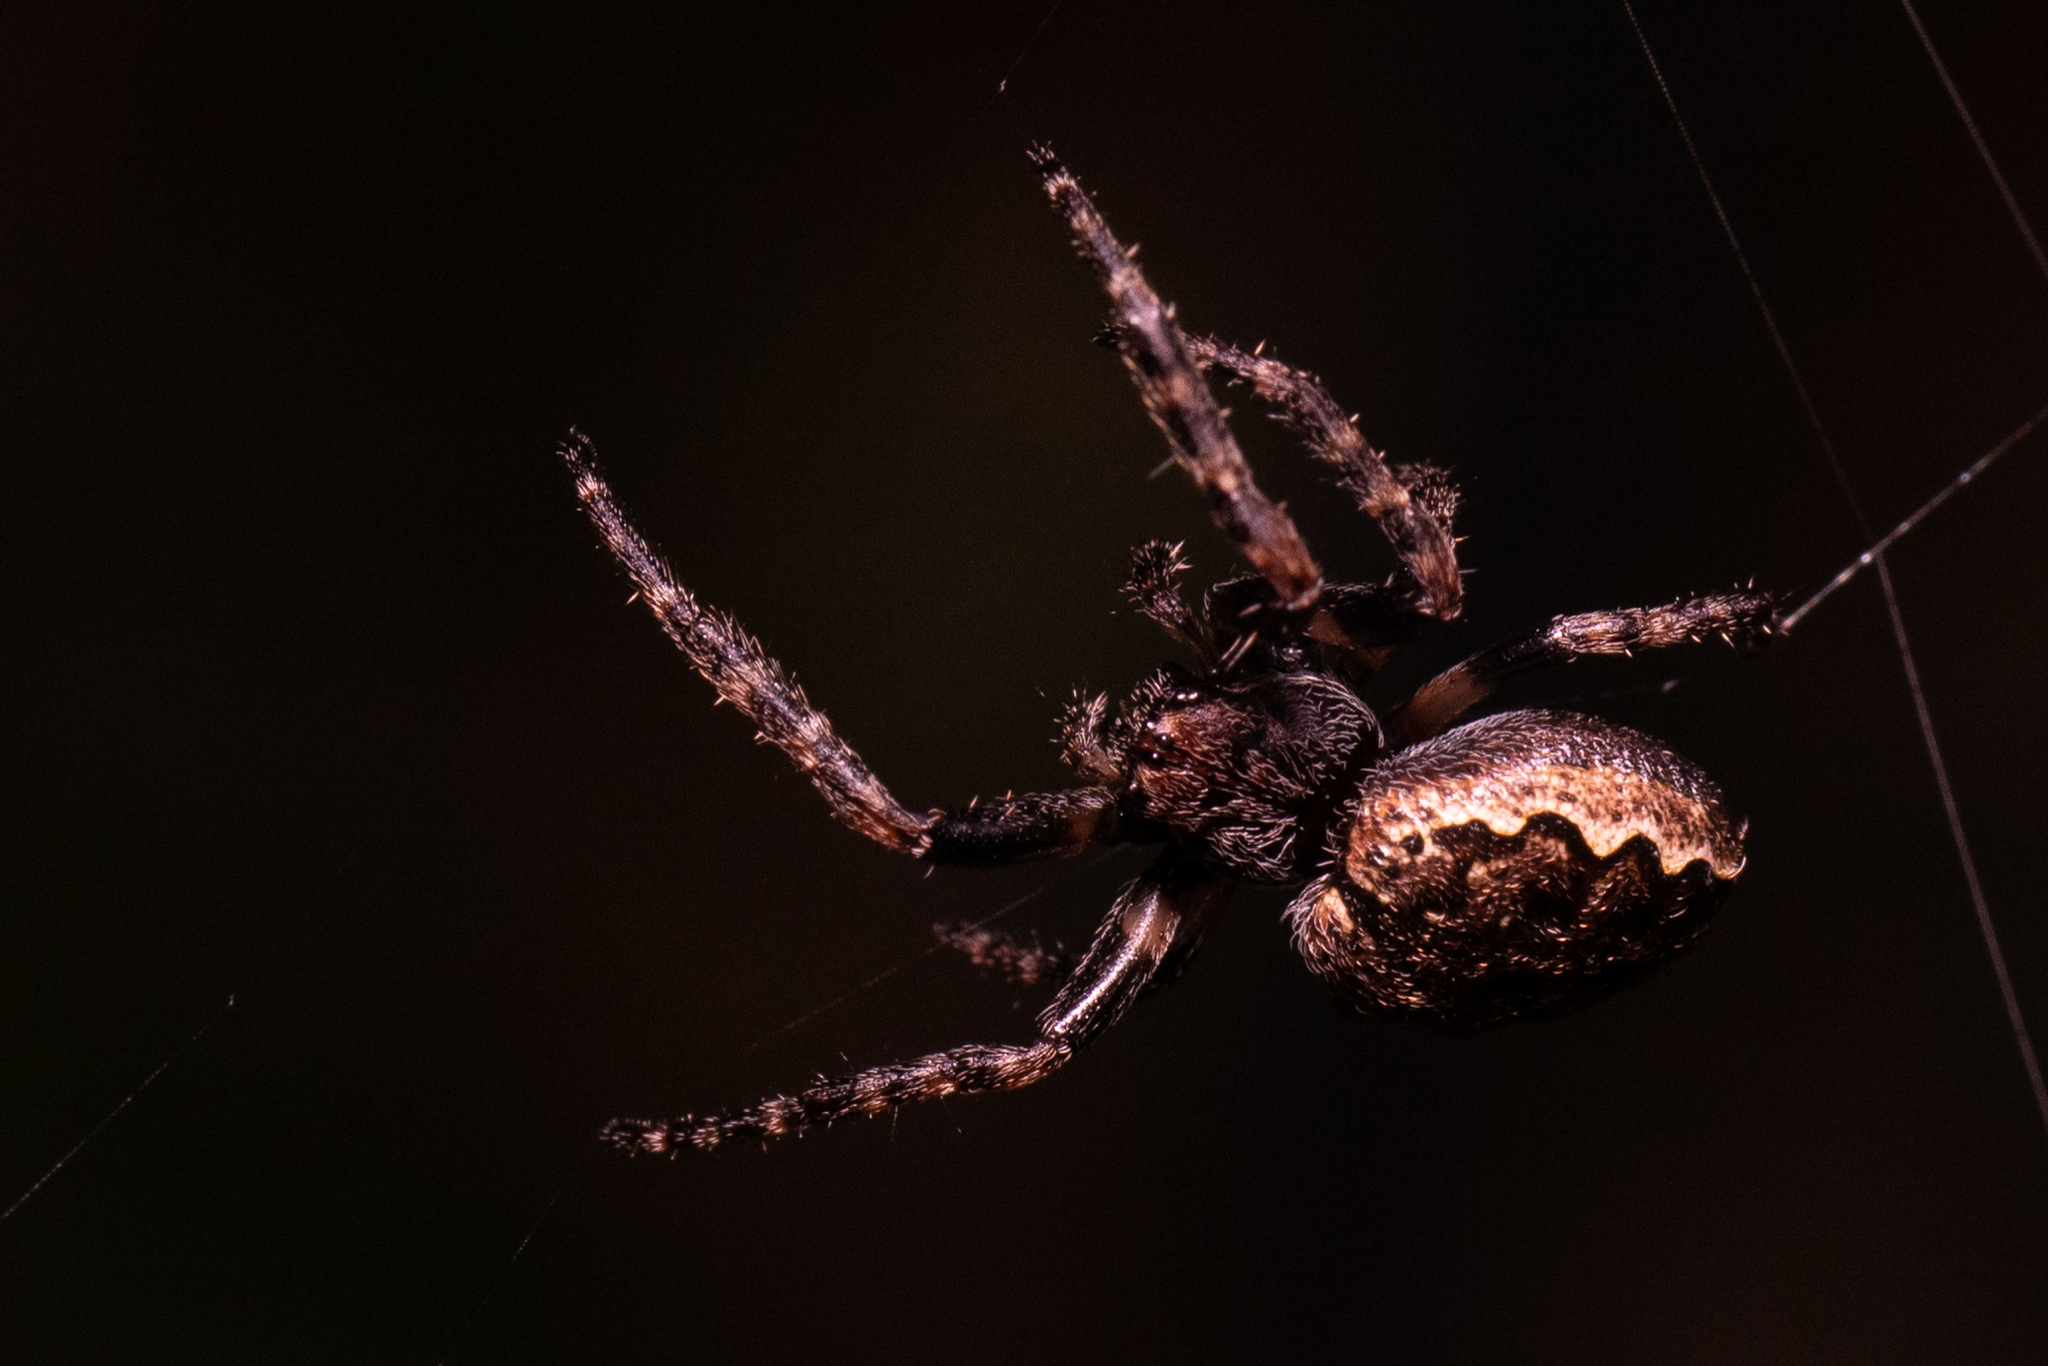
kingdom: Animalia
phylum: Arthropoda
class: Arachnida
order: Araneae
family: Araneidae
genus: Nuctenea
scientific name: Nuctenea umbratica
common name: Toad spider
